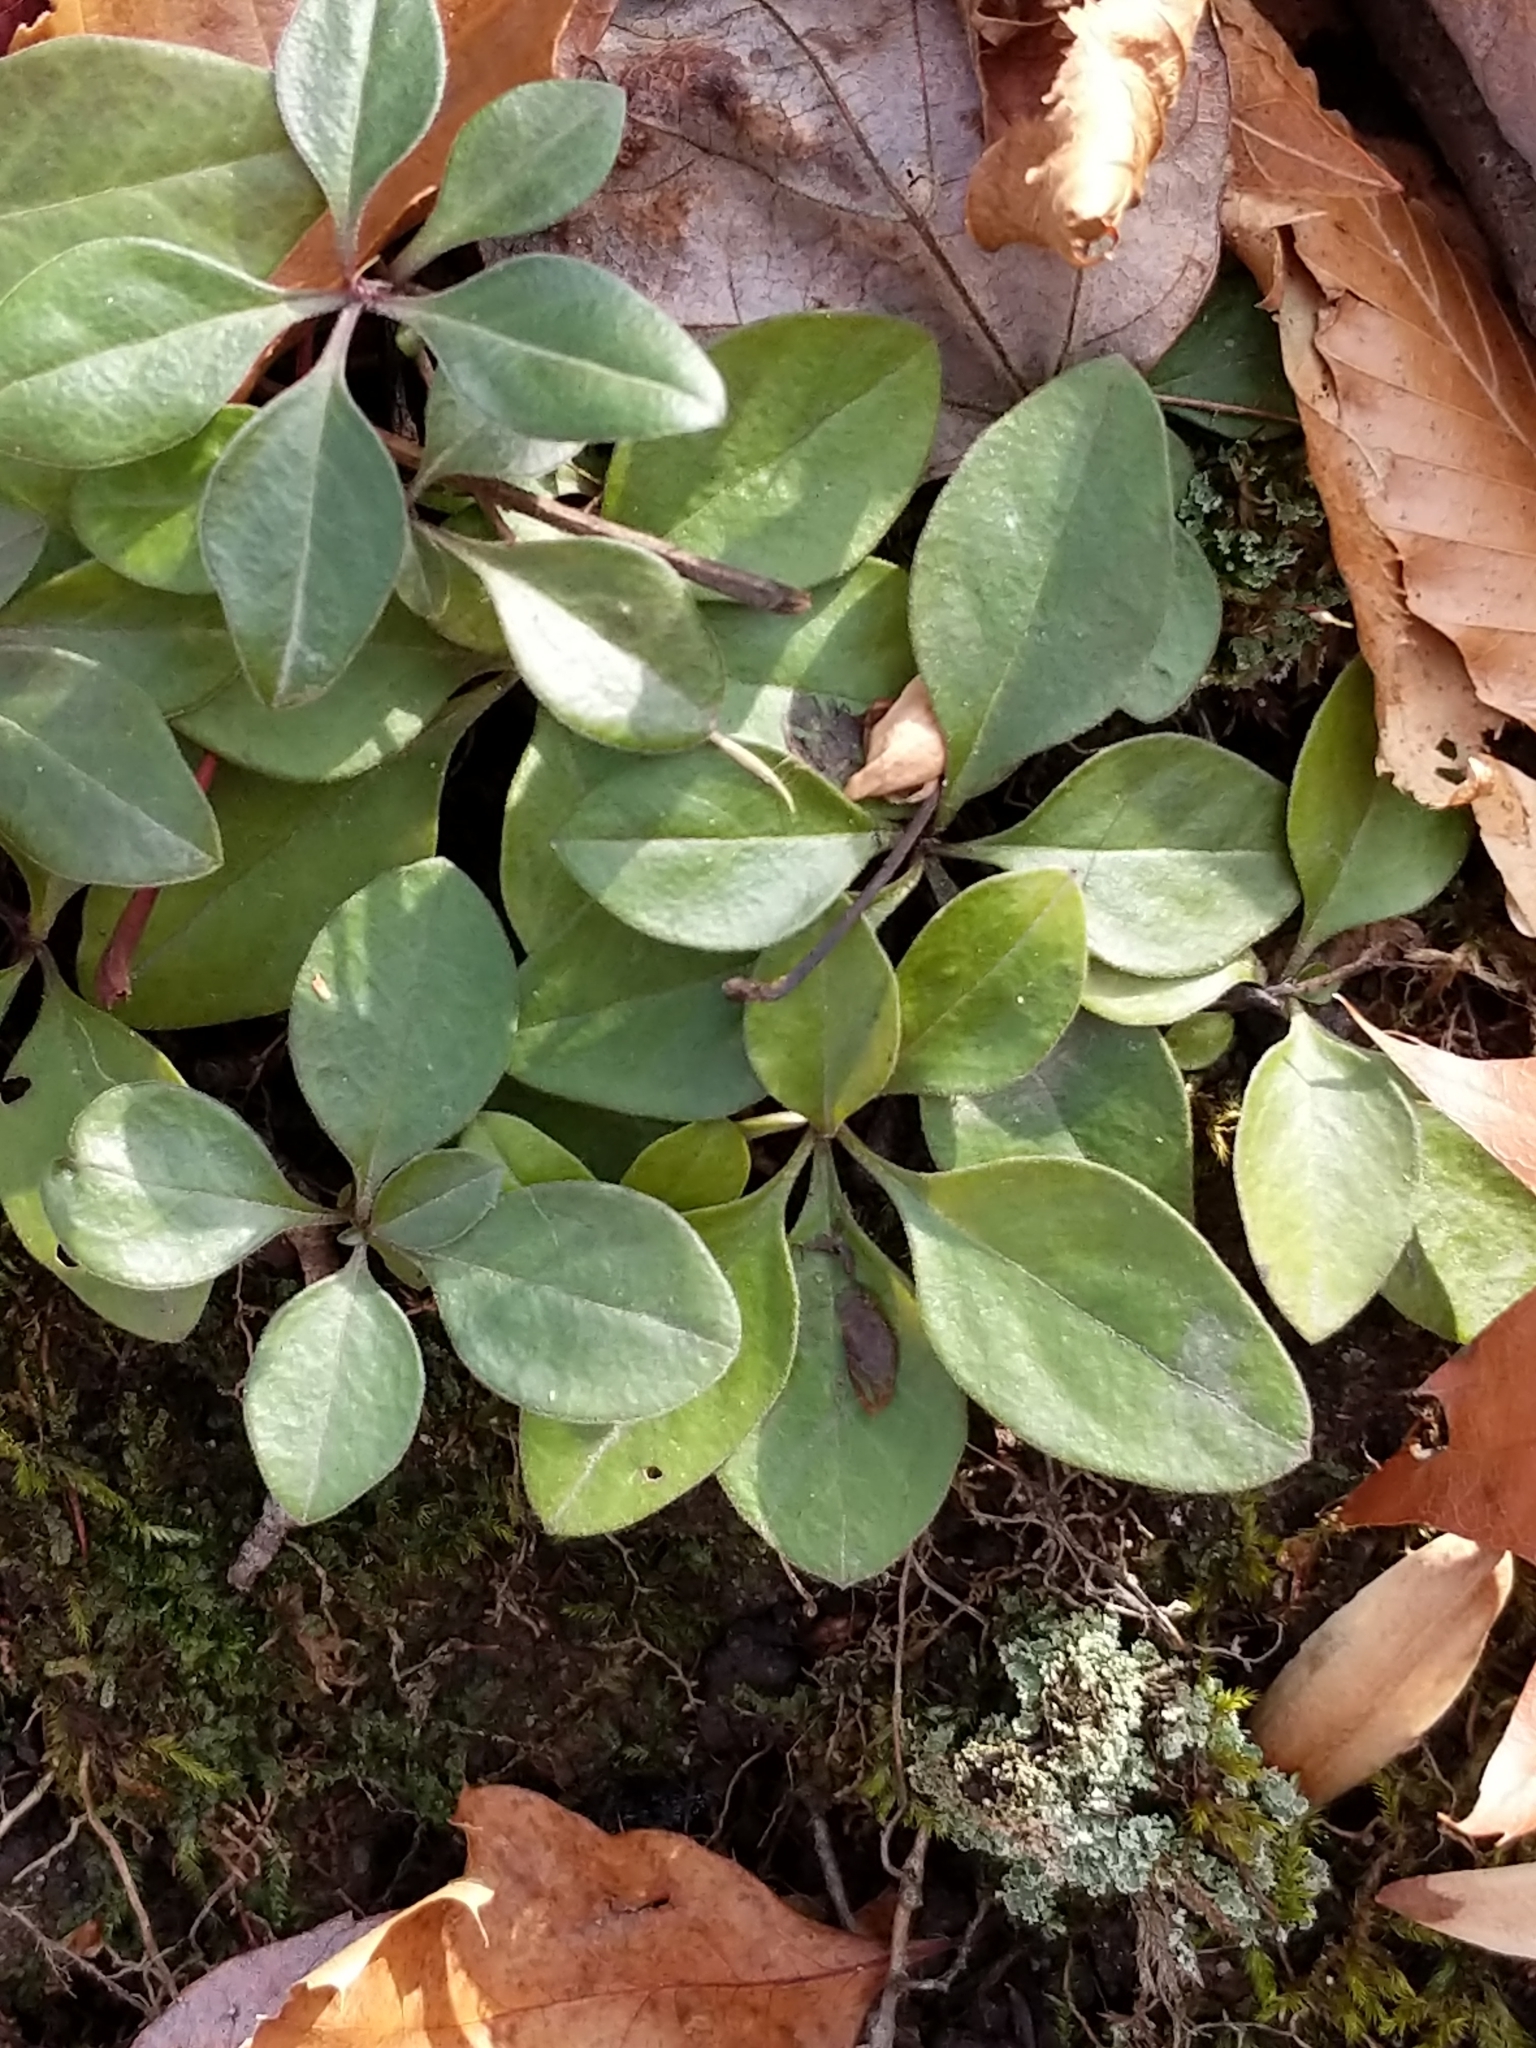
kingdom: Plantae
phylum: Tracheophyta
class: Magnoliopsida
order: Ericales
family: Ericaceae
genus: Gaultheria
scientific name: Gaultheria procumbens
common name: Checkerberry
